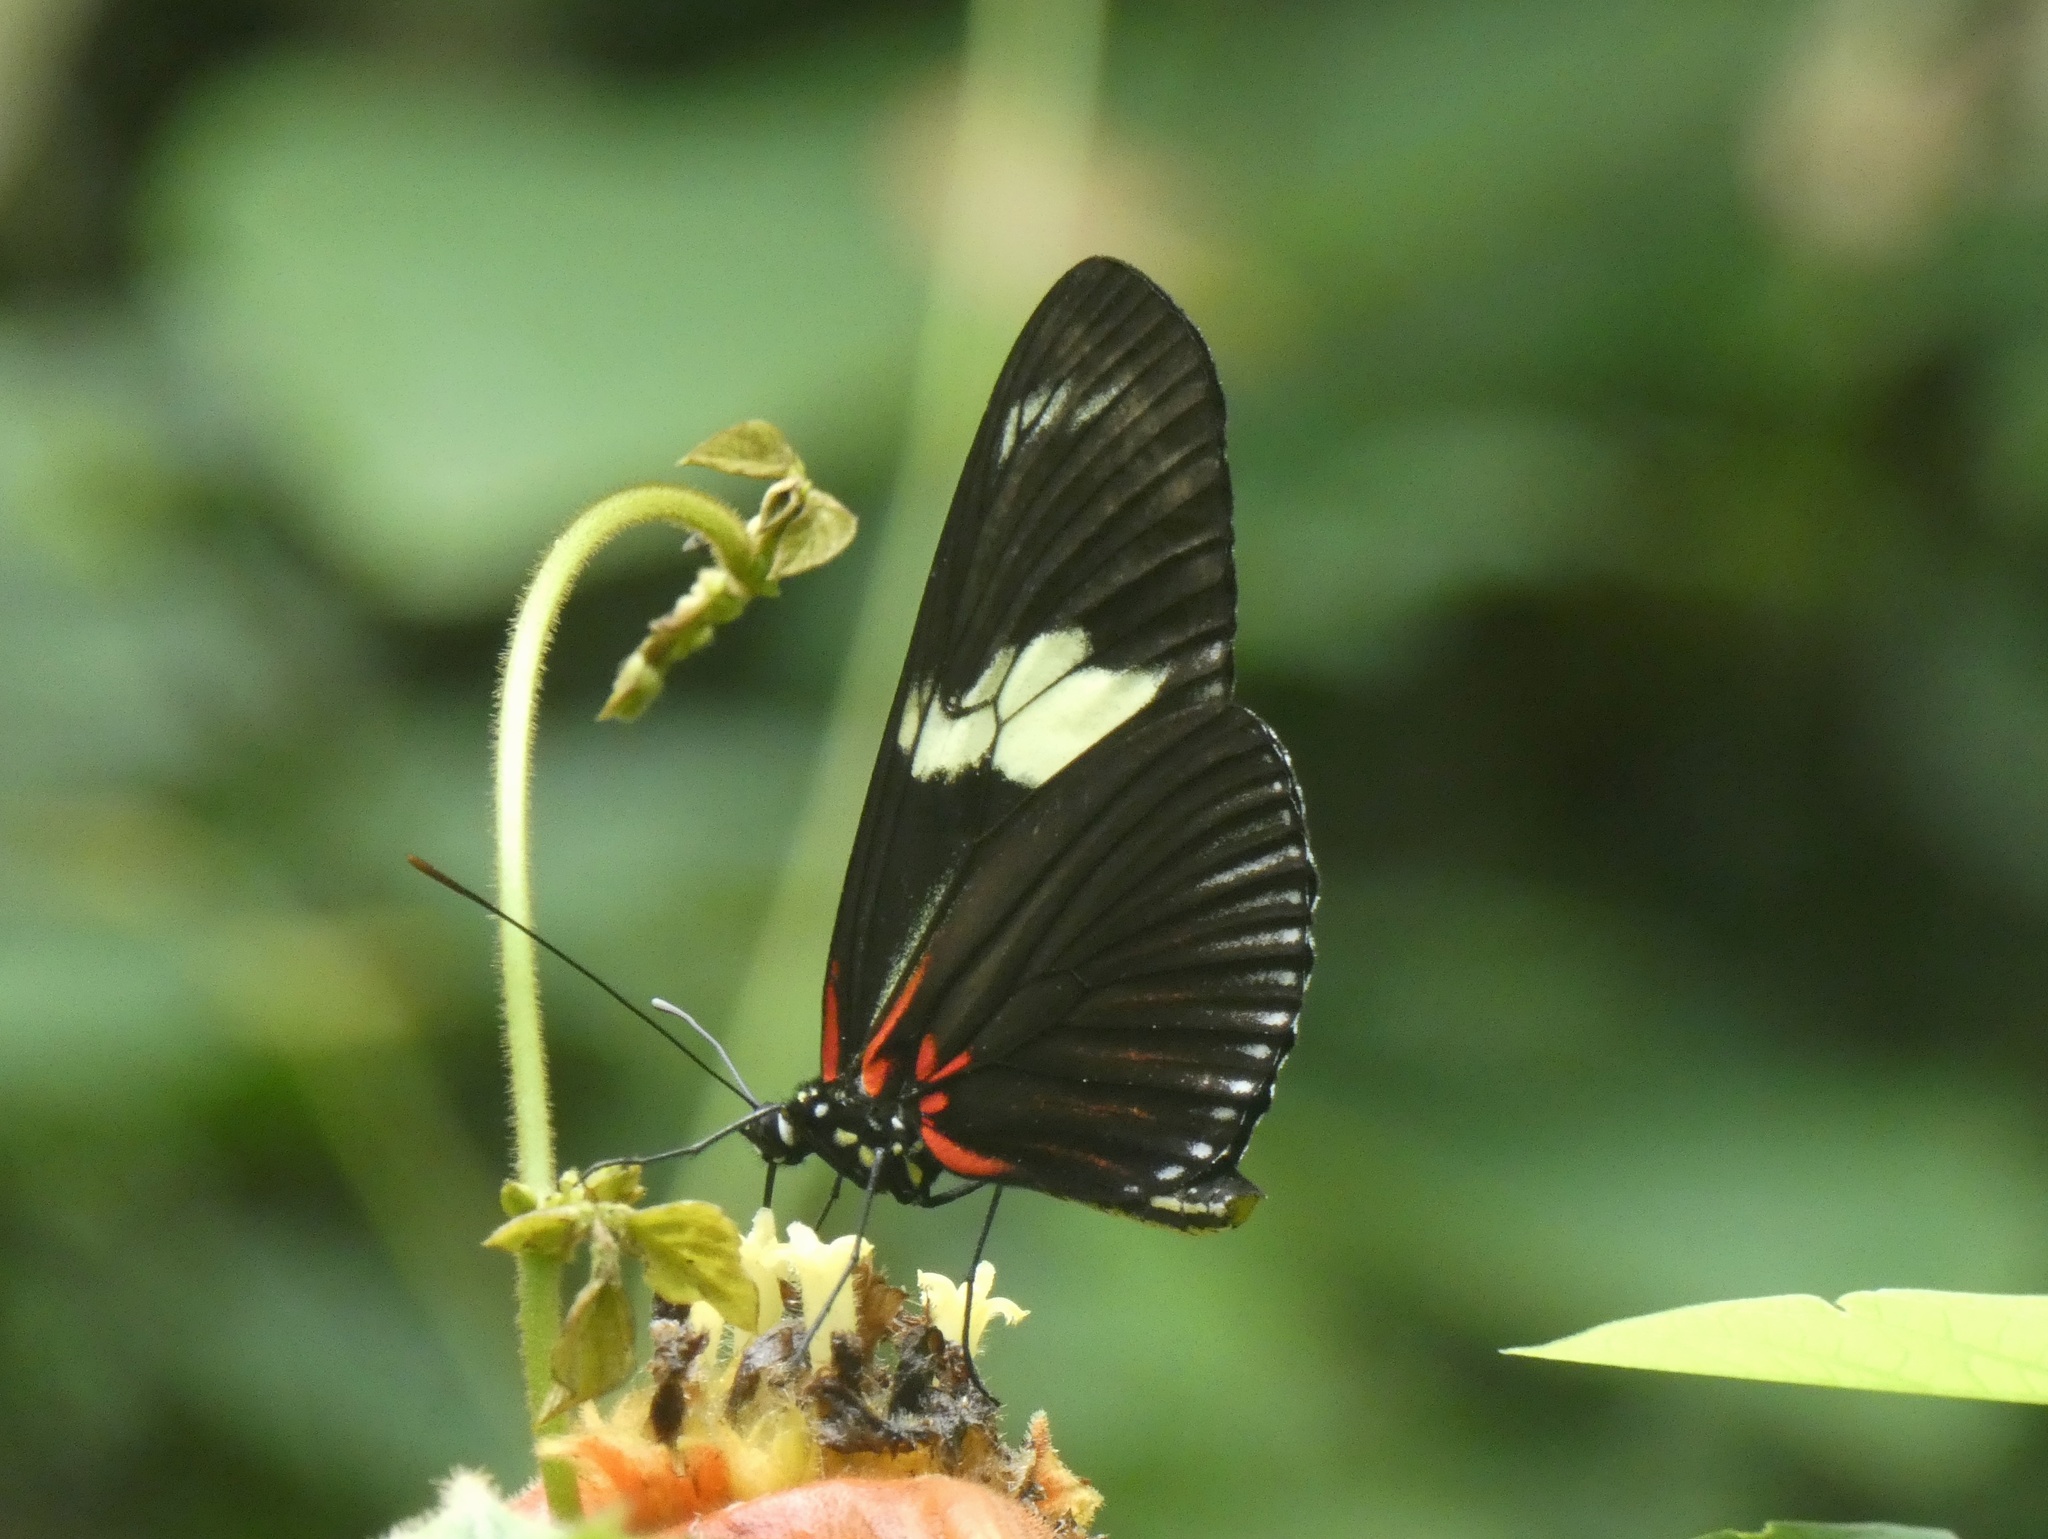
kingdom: Animalia
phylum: Arthropoda
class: Insecta
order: Lepidoptera
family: Nymphalidae
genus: Heliconius
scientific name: Heliconius doris
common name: Doris longwing
